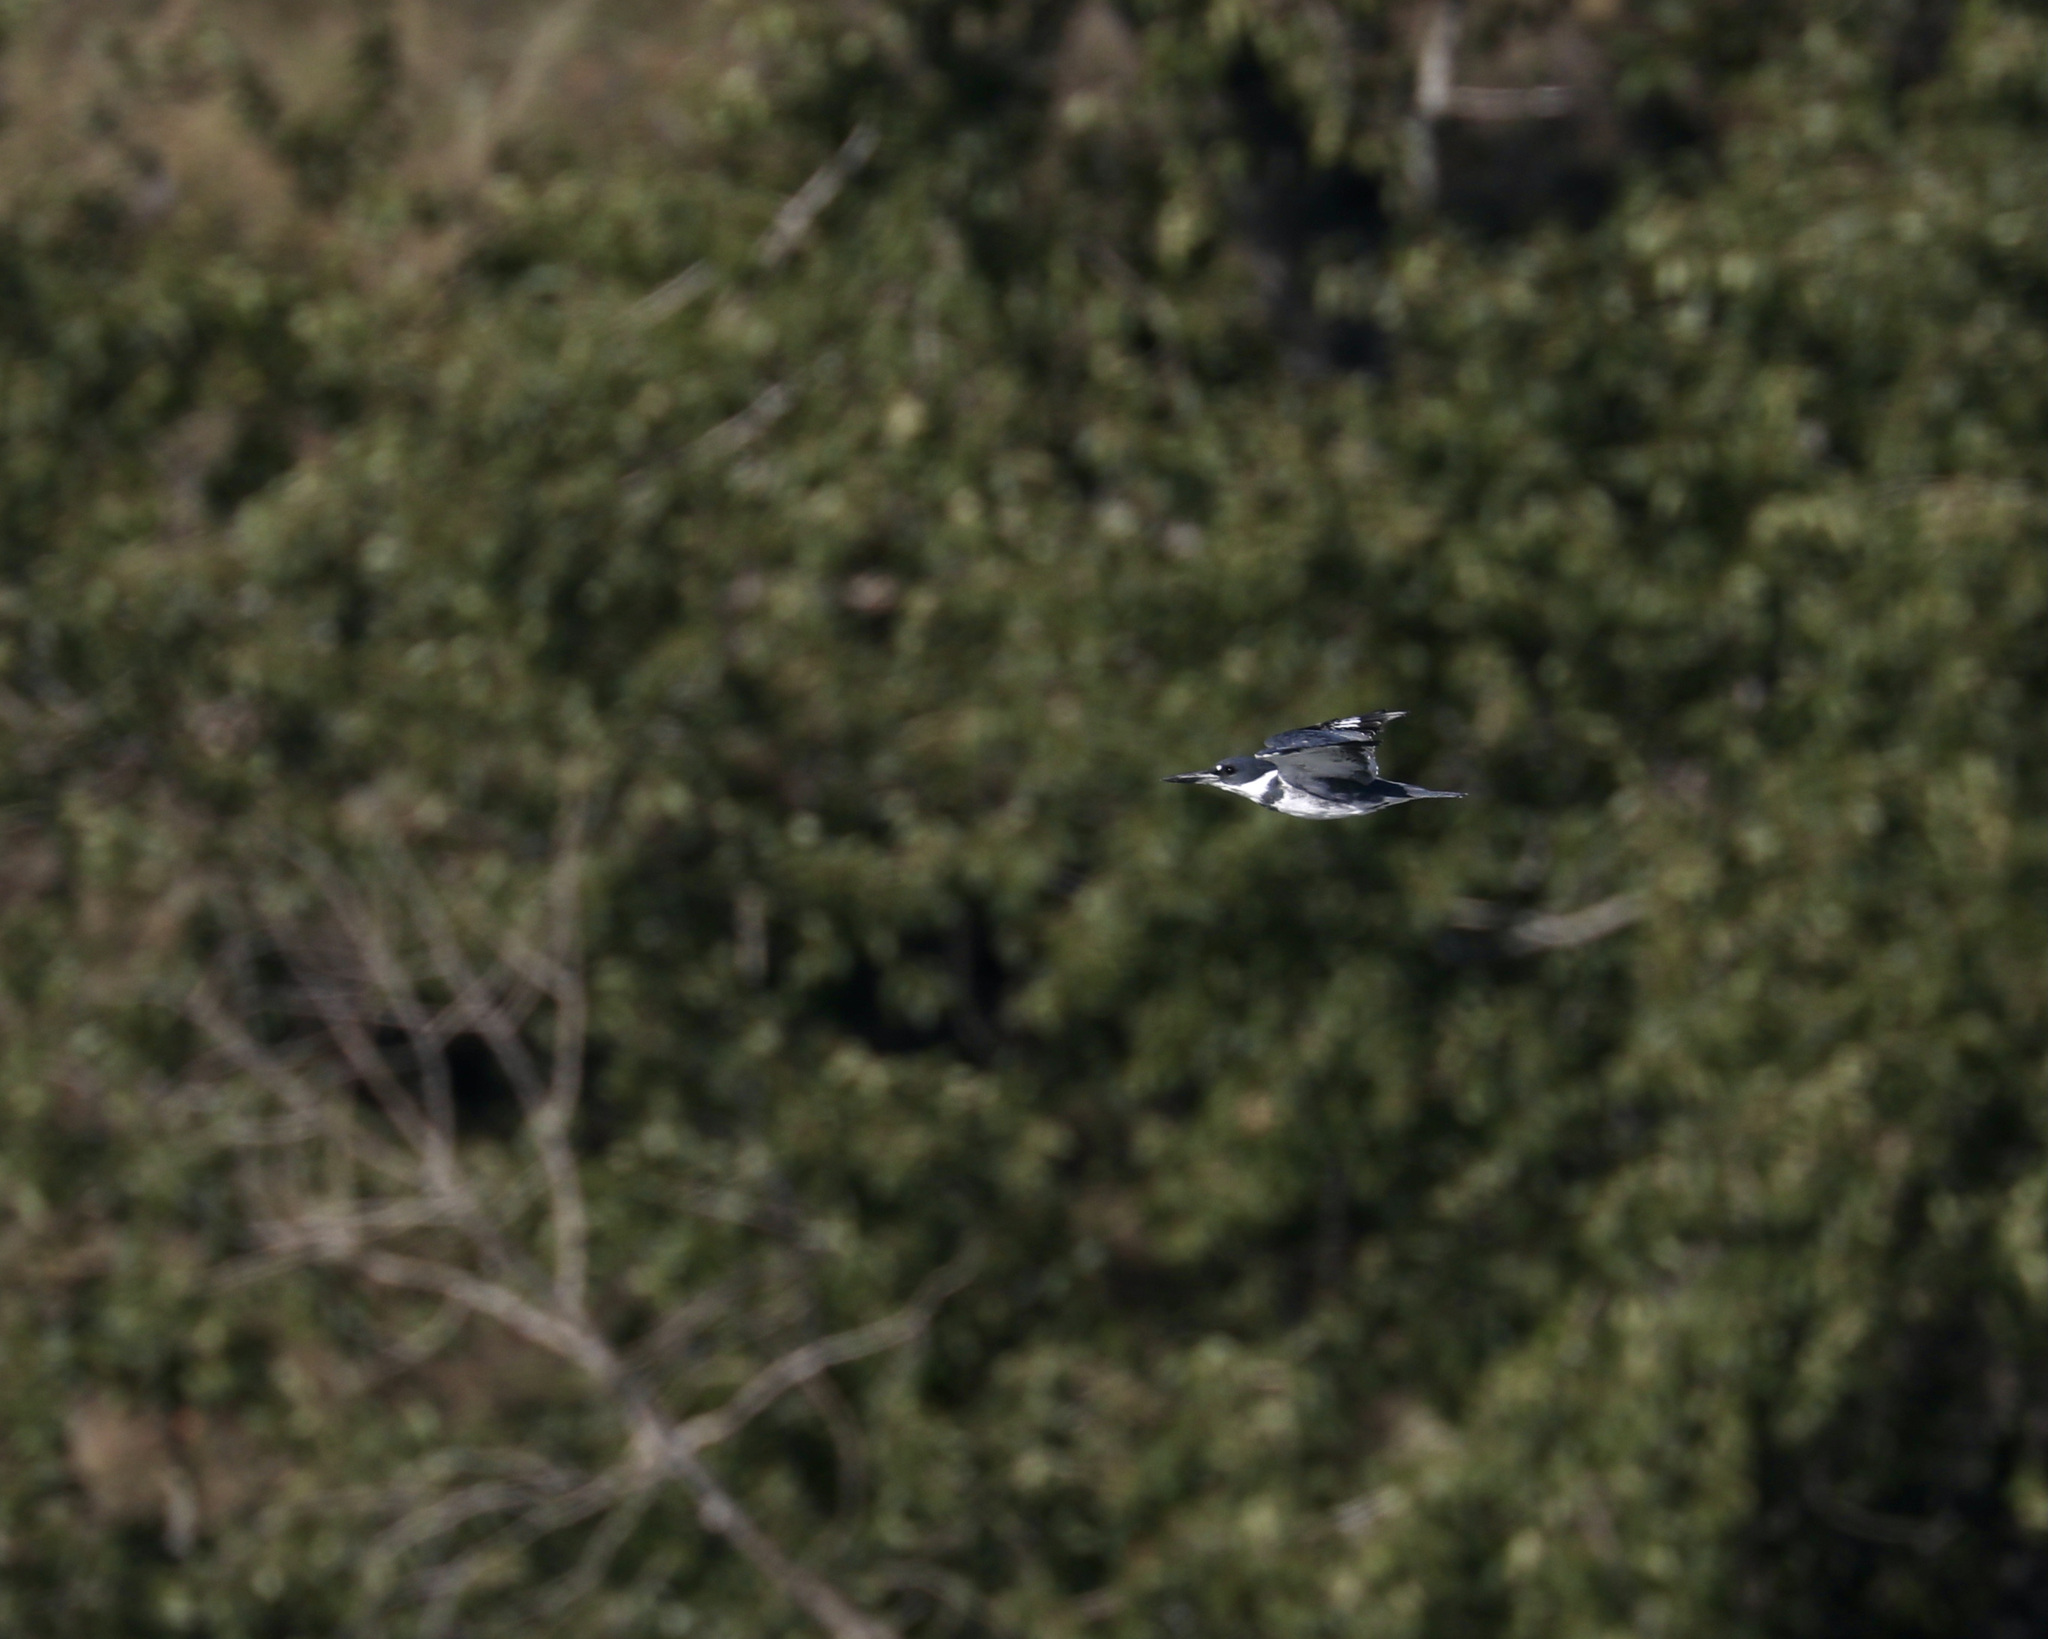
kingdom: Animalia
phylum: Chordata
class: Aves
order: Coraciiformes
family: Alcedinidae
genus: Megaceryle
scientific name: Megaceryle alcyon
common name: Belted kingfisher
